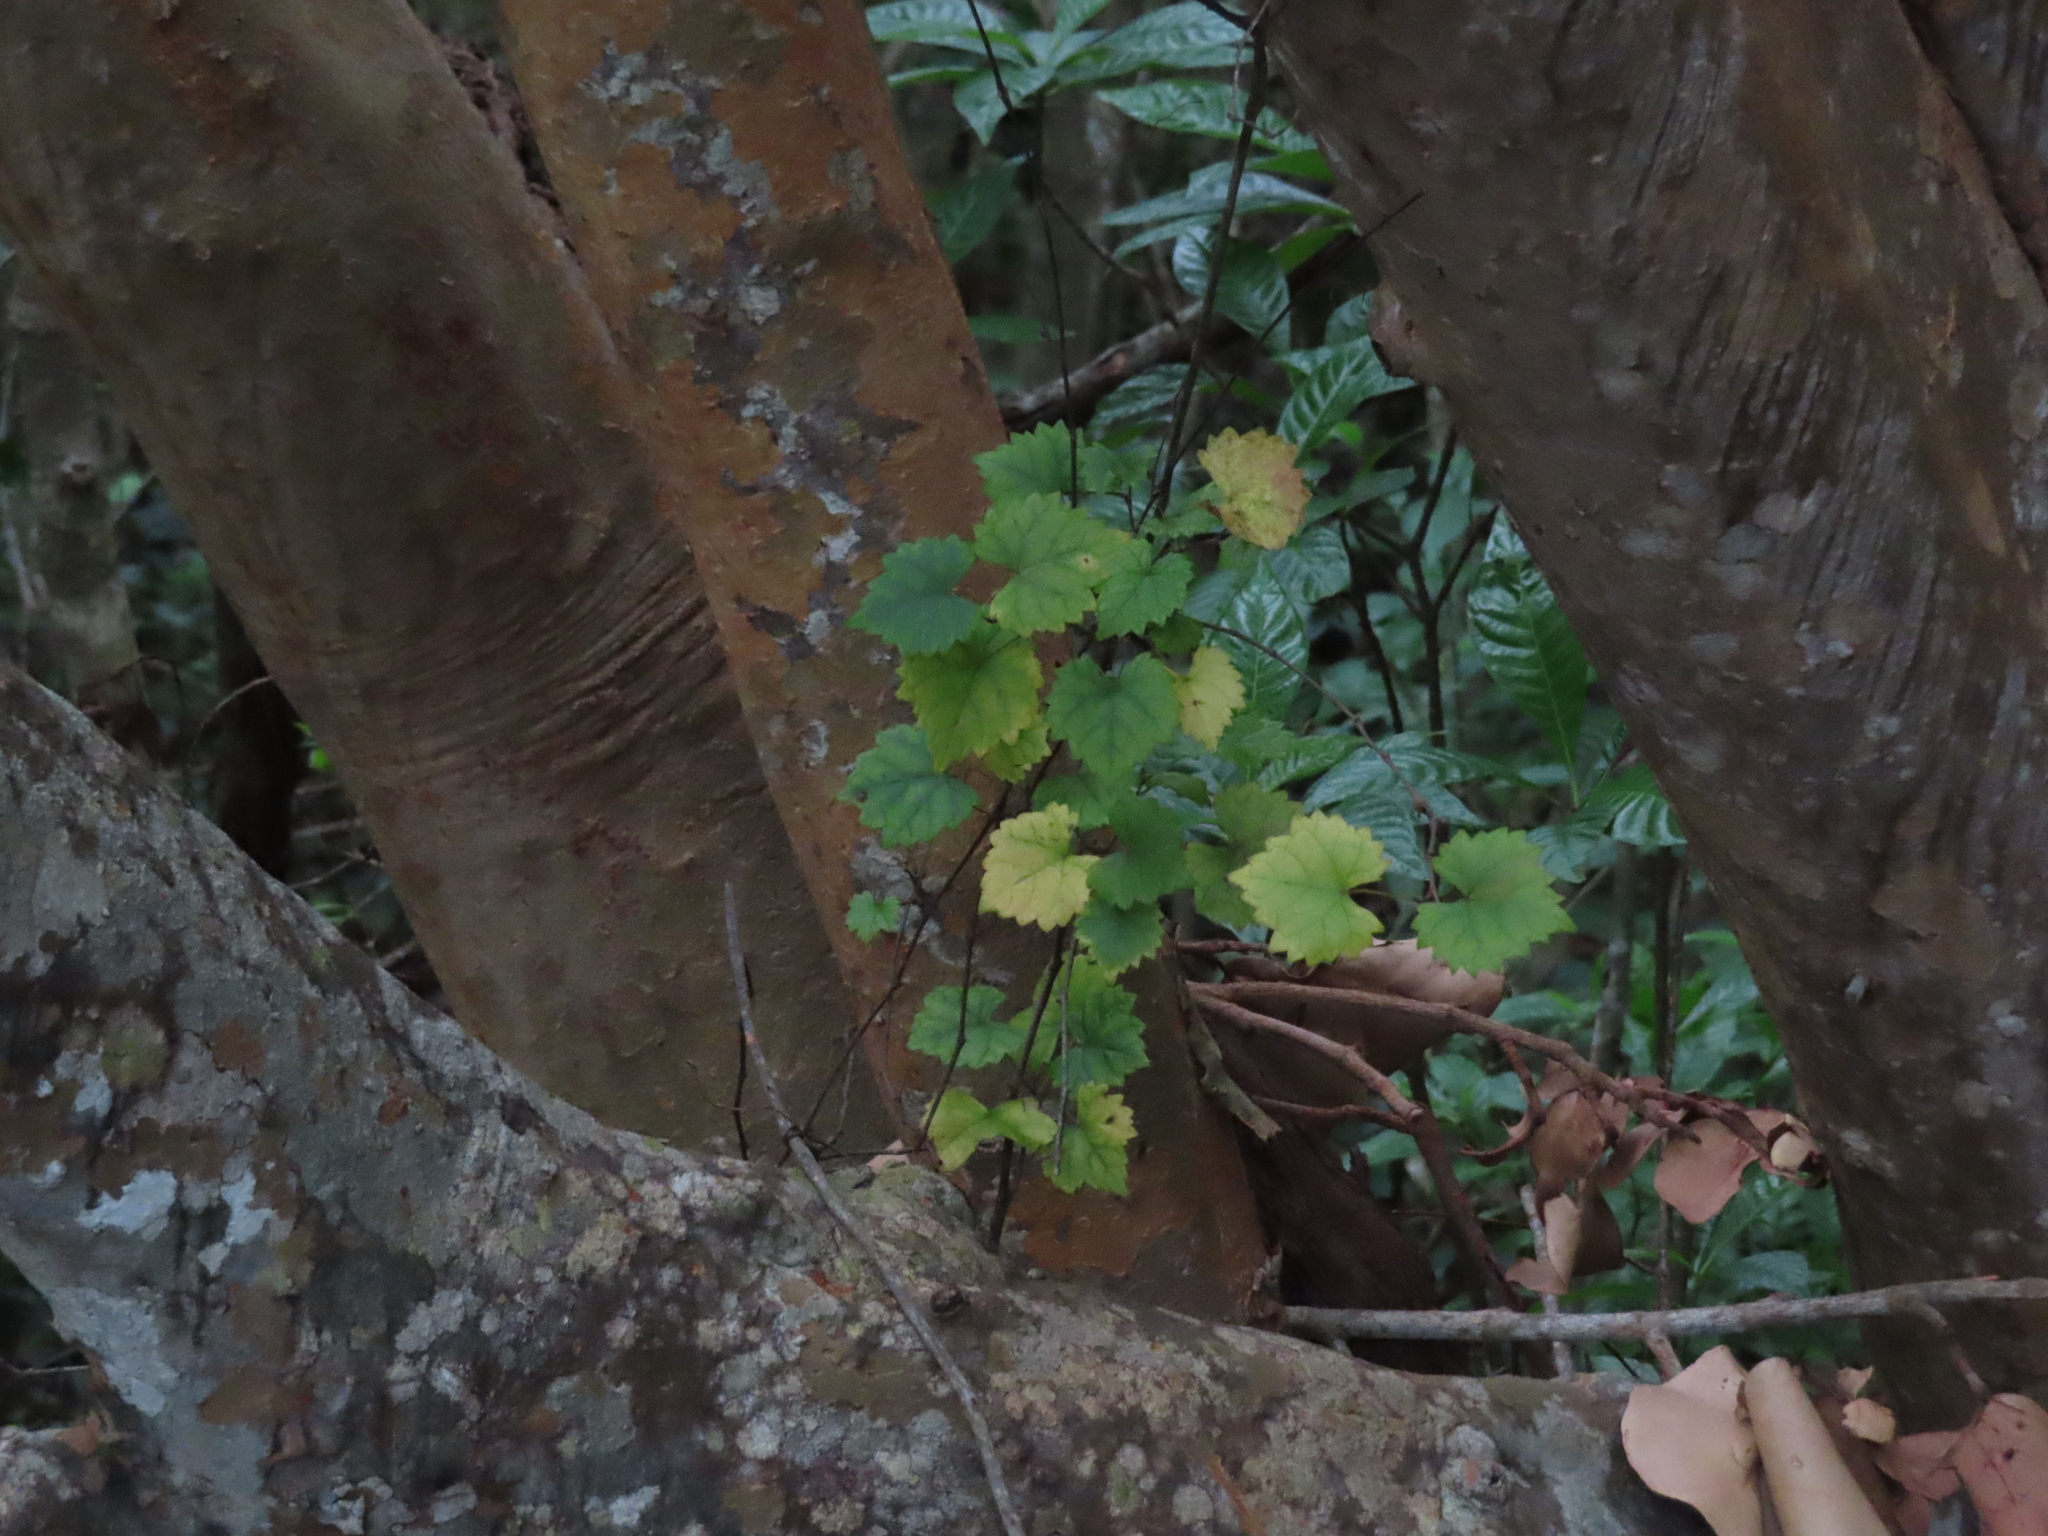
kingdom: Plantae
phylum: Tracheophyta
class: Magnoliopsida
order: Vitales
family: Vitaceae
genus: Vitis
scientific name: Vitis rotundifolia
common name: Muscadine grape
